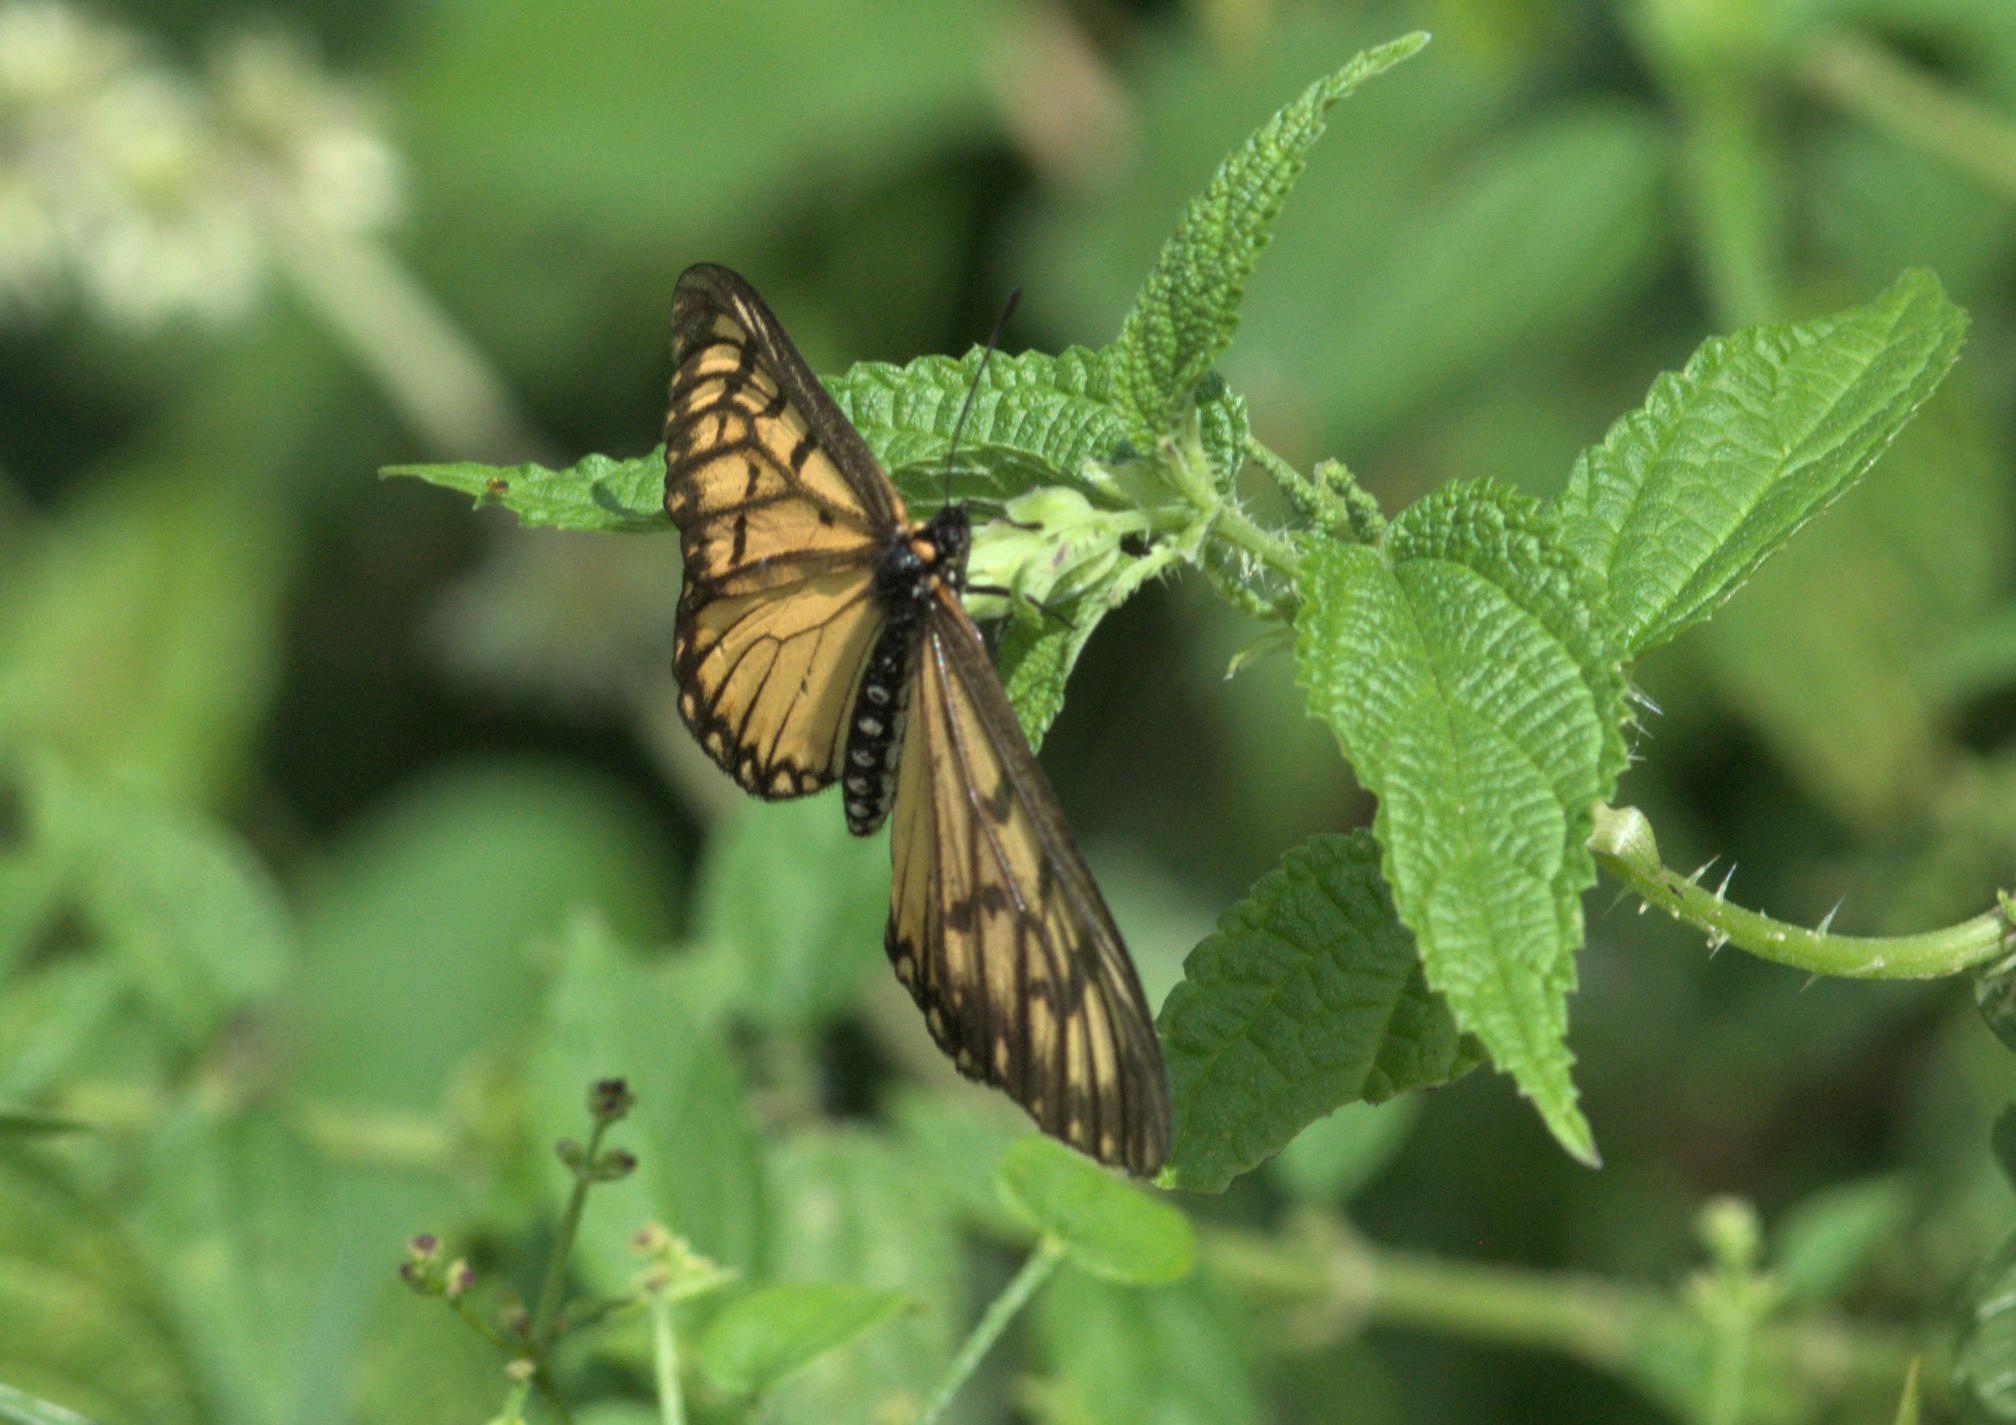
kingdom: Animalia
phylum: Arthropoda
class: Insecta
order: Lepidoptera
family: Nymphalidae
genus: Acraea
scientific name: Acraea Telchinia issoria
